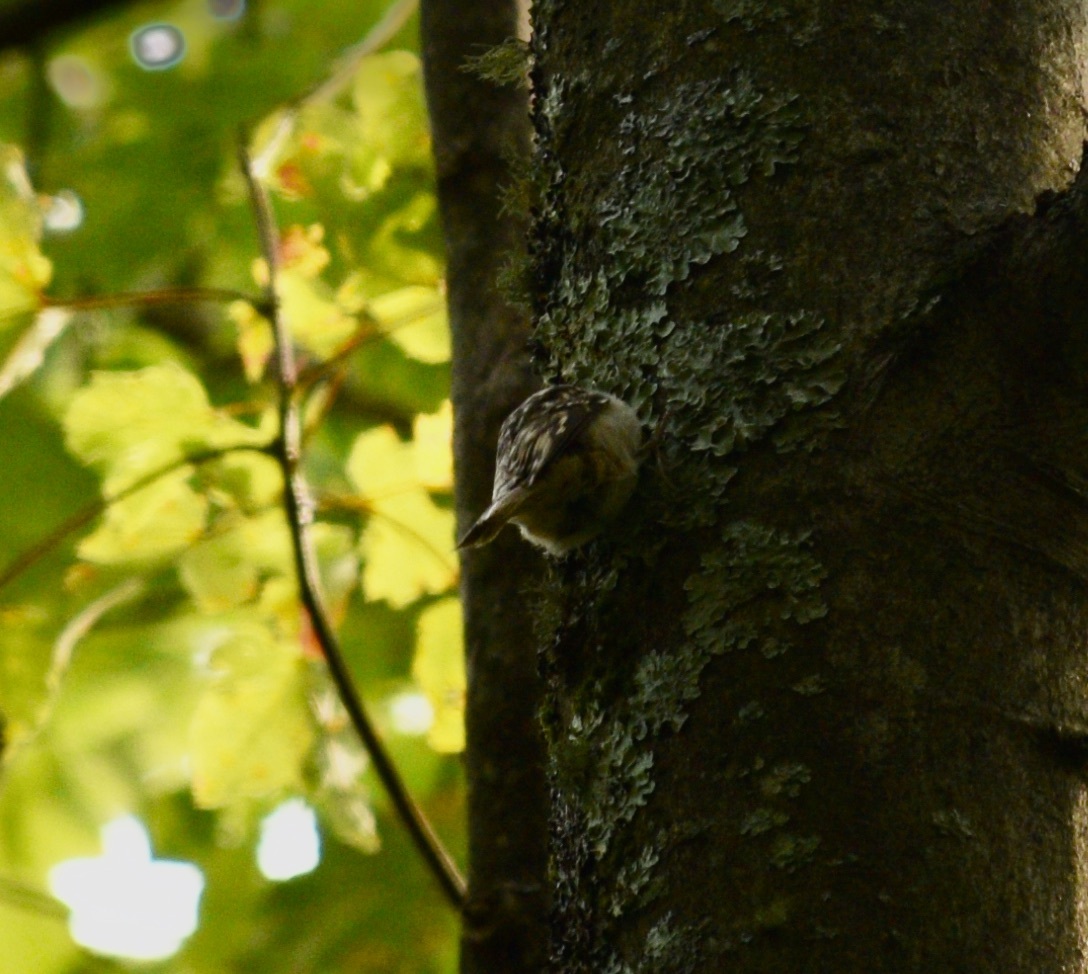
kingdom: Animalia
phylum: Chordata
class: Aves
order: Passeriformes
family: Certhiidae
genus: Certhia
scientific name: Certhia americana
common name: Brown creeper
